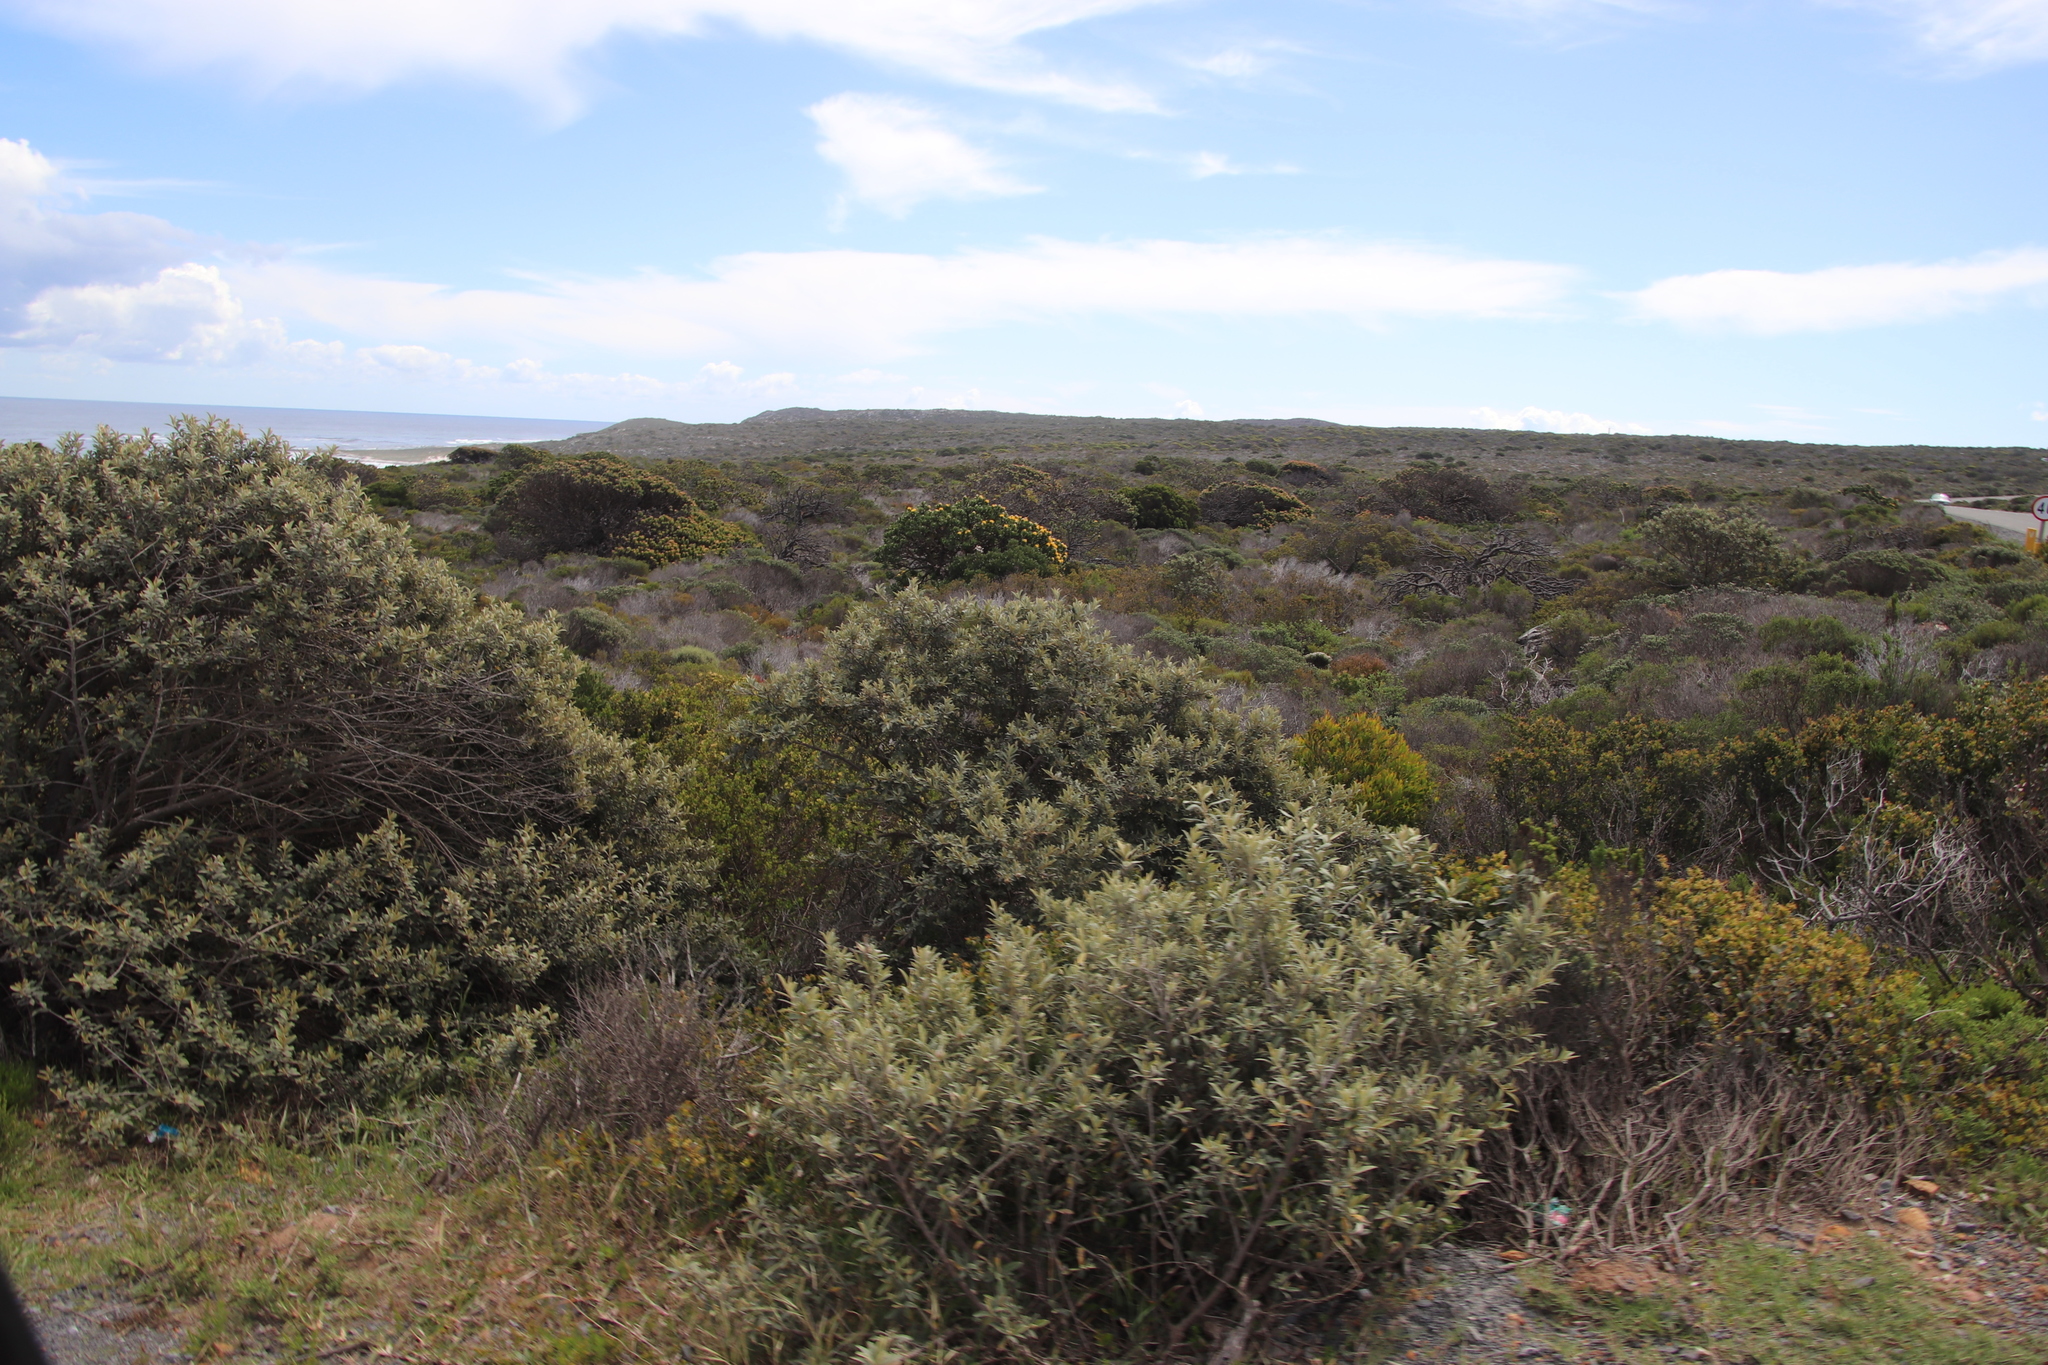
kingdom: Plantae
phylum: Tracheophyta
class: Magnoliopsida
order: Asterales
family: Asteraceae
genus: Tarchonanthus
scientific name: Tarchonanthus littoralis
